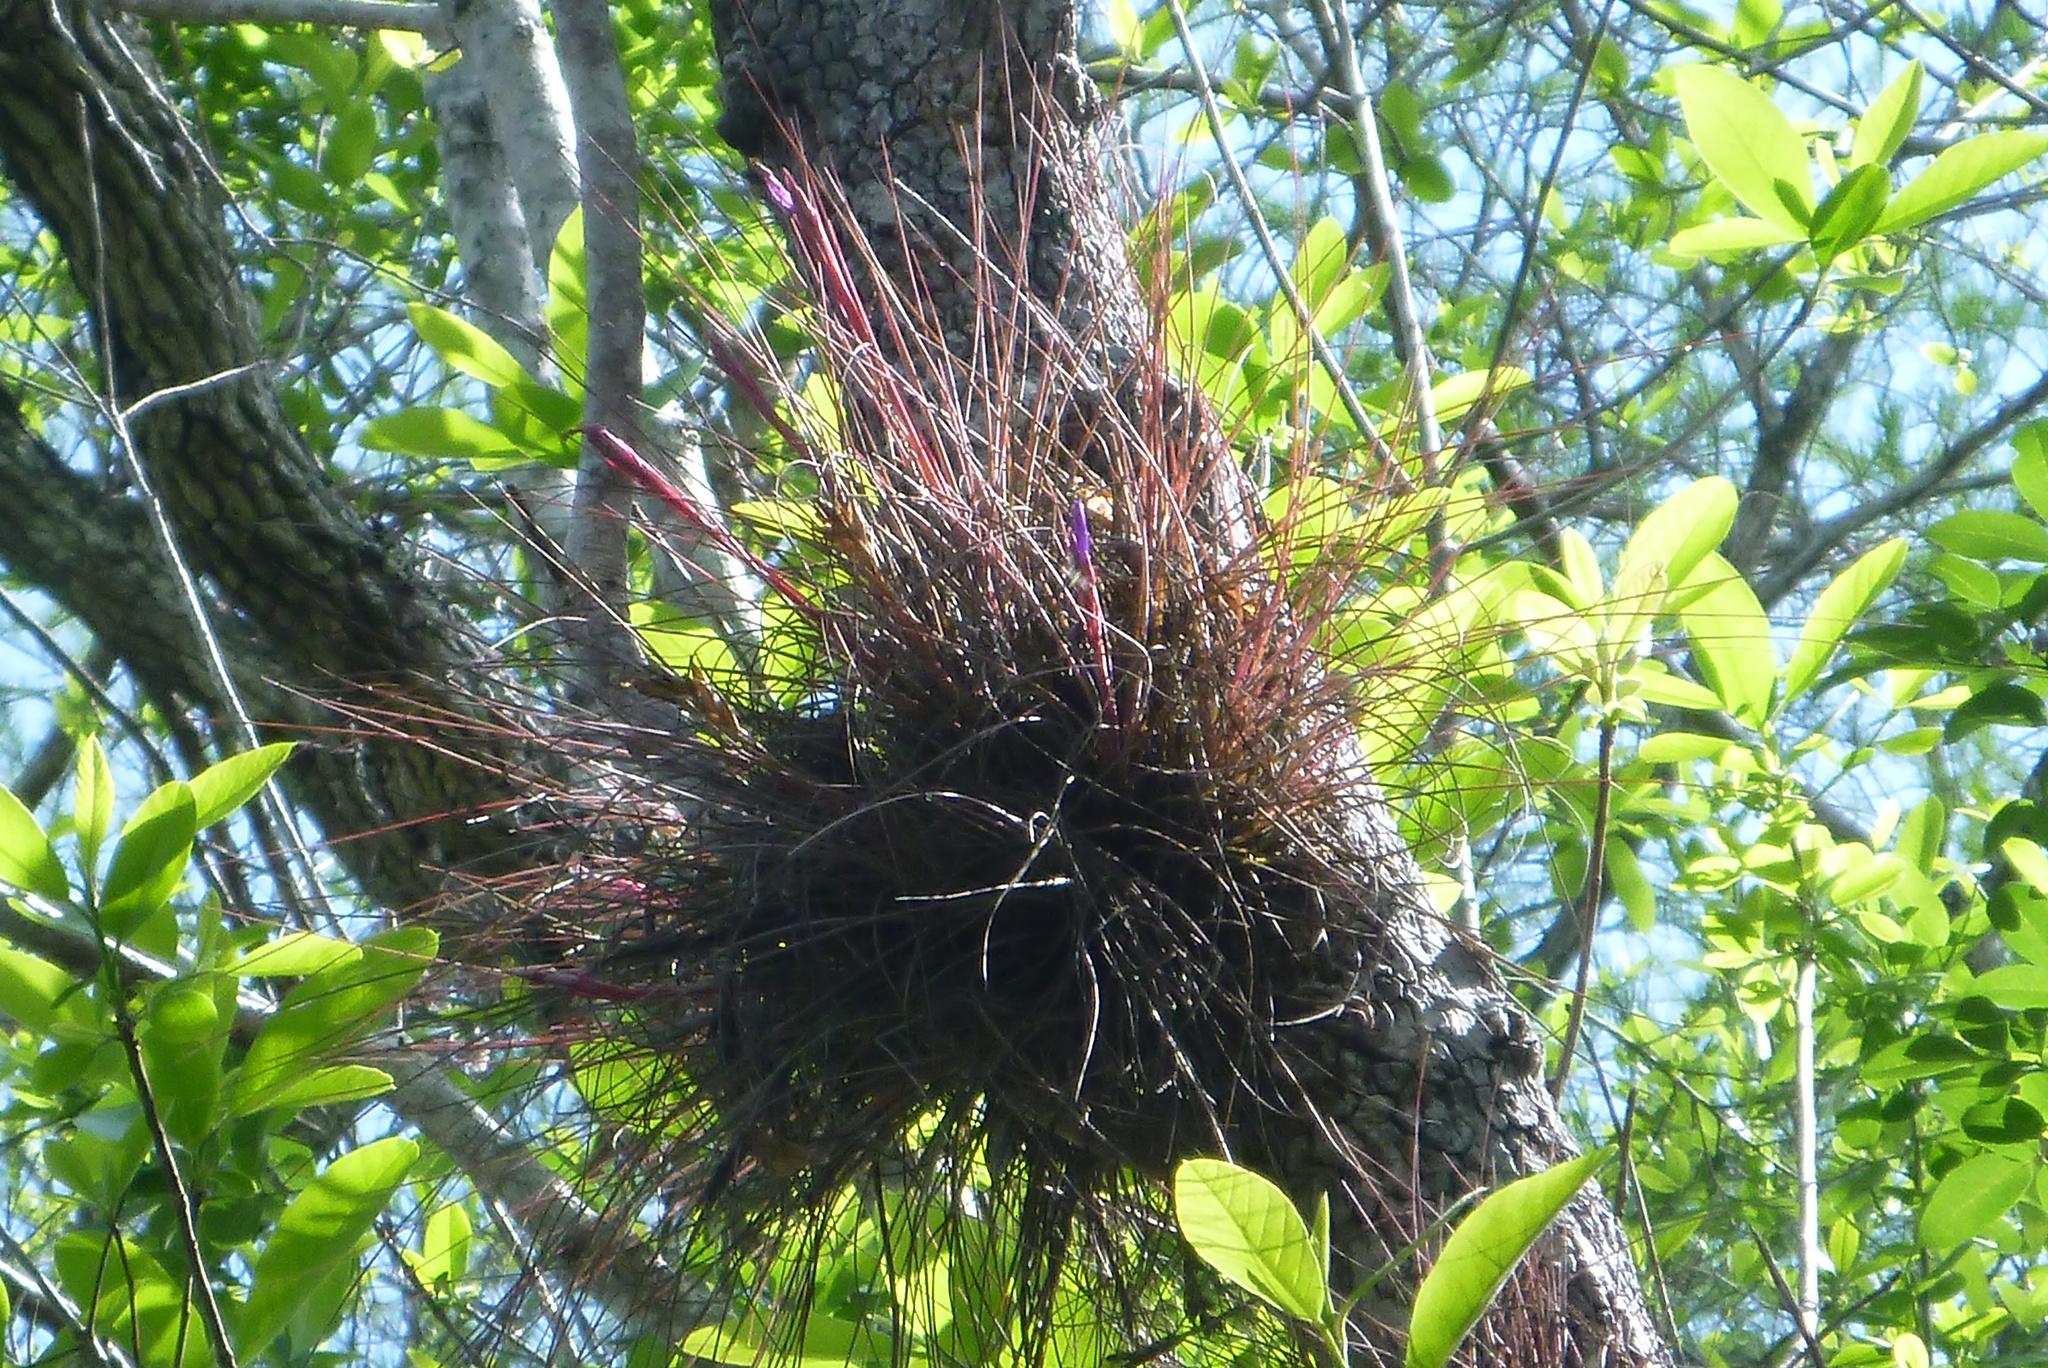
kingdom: Plantae
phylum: Tracheophyta
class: Liliopsida
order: Poales
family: Bromeliaceae
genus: Tillandsia
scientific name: Tillandsia bartramii
